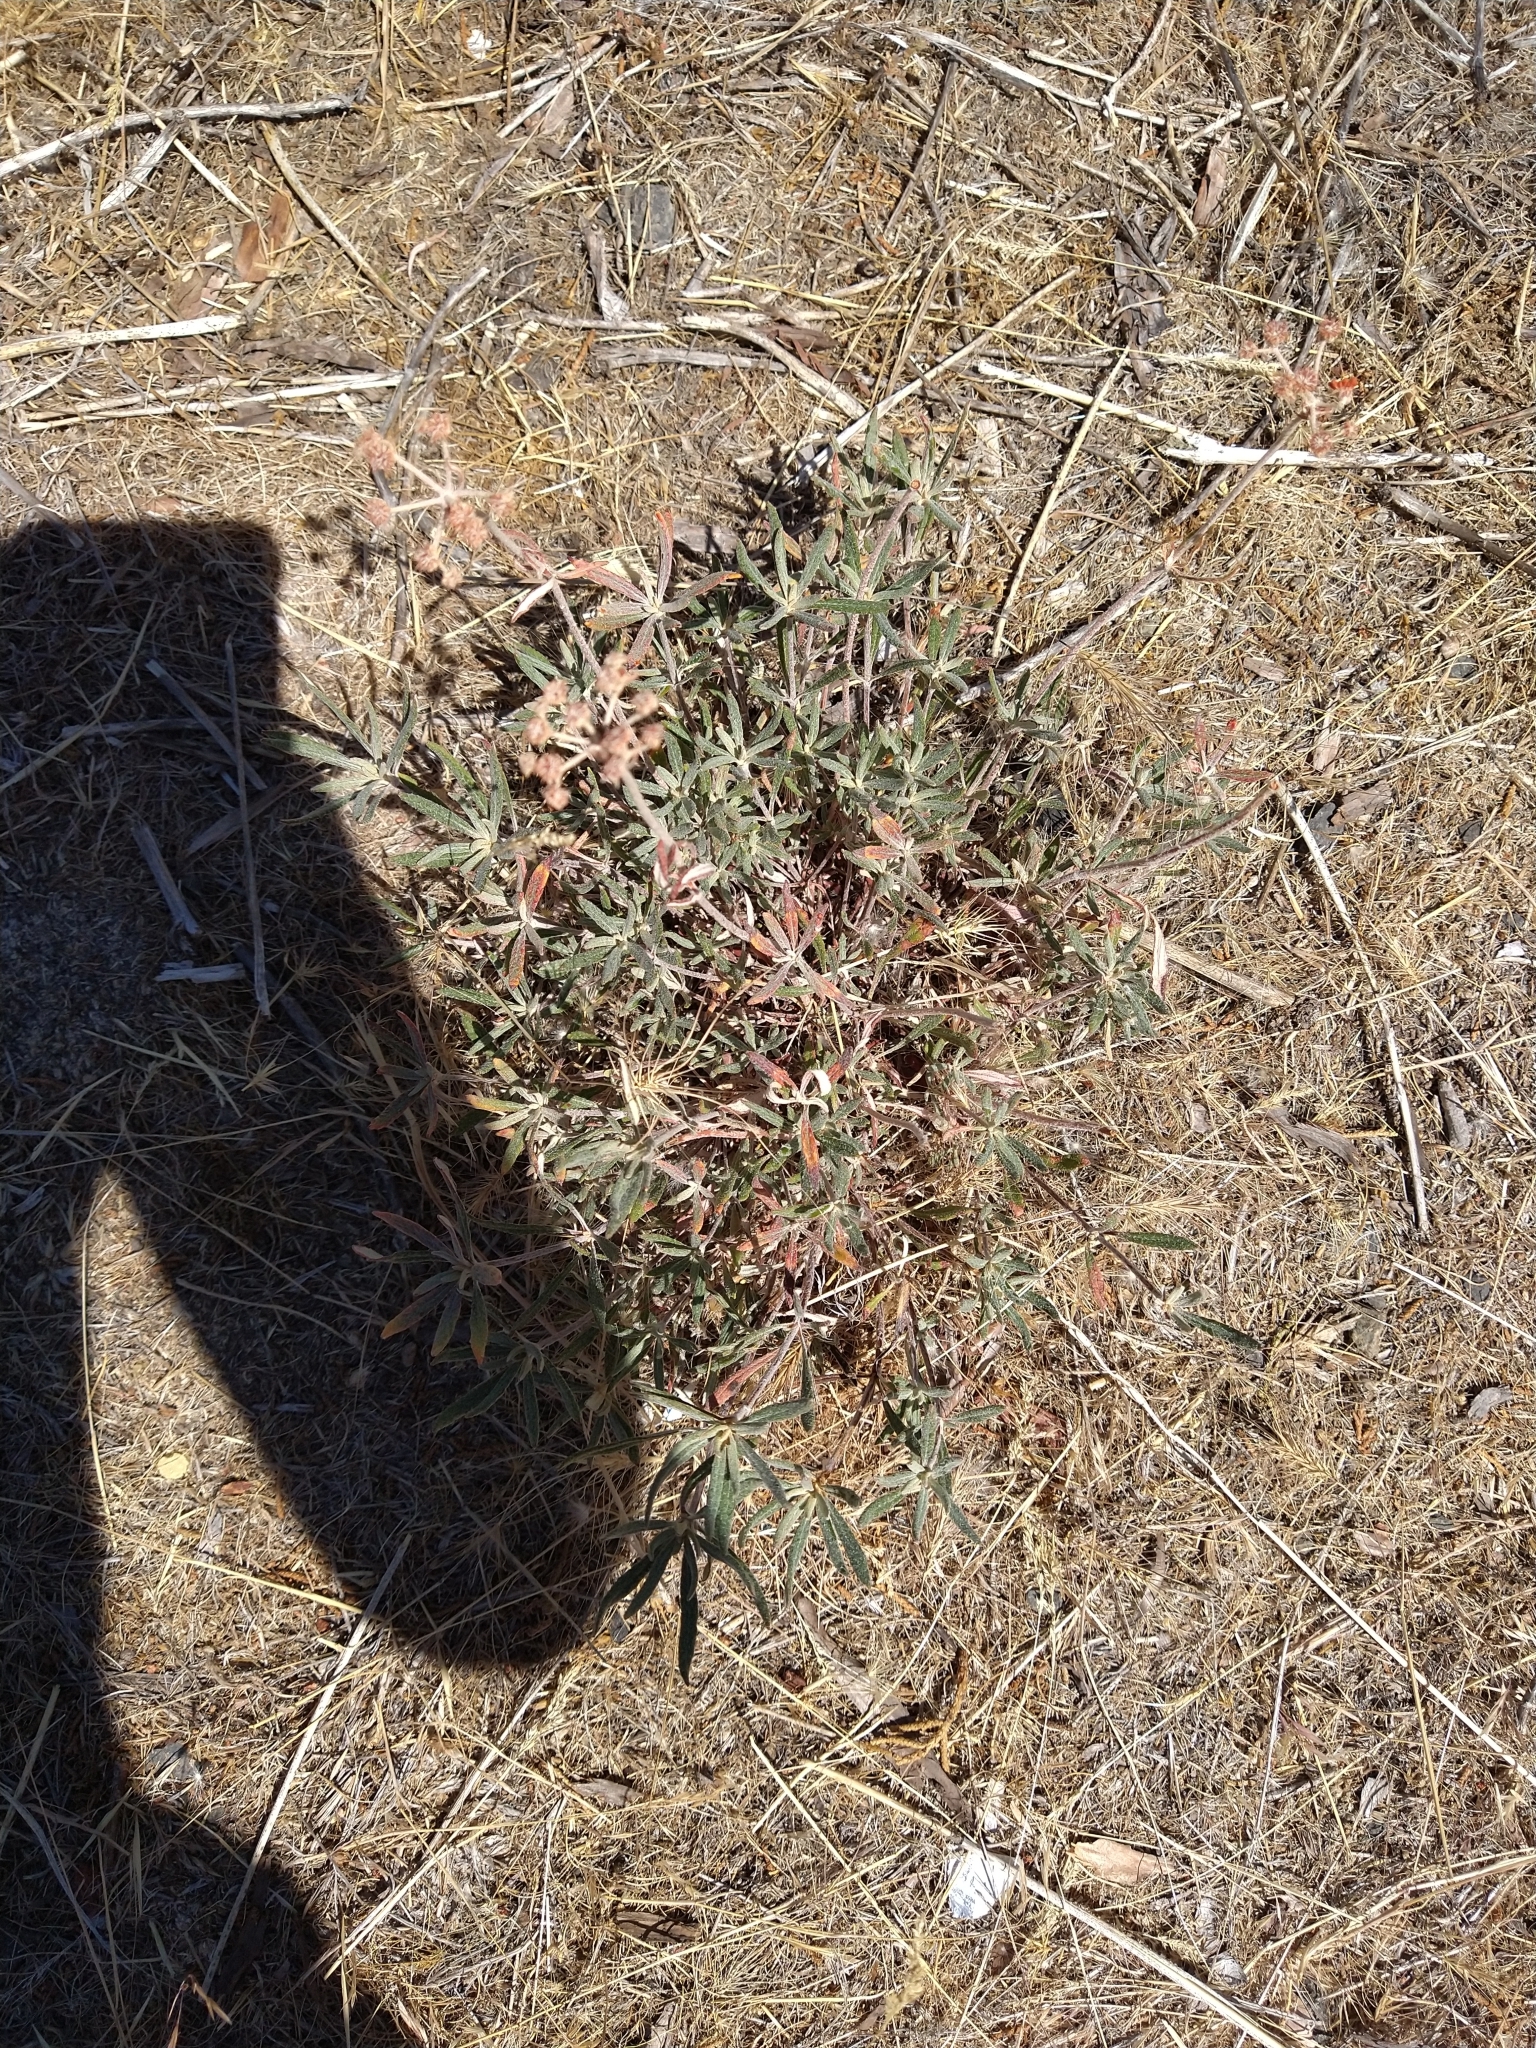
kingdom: Plantae
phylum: Tracheophyta
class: Magnoliopsida
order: Caryophyllales
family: Polygonaceae
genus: Eriogonum
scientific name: Eriogonum heracleoides
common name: Wyeth's buckwheat
